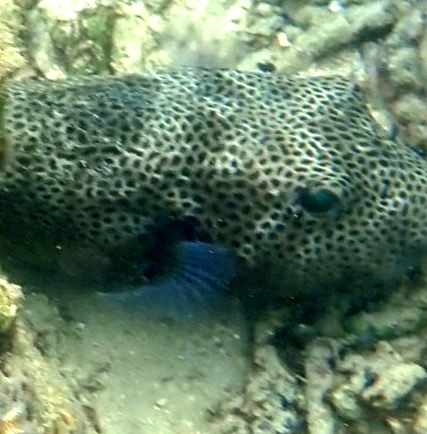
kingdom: Animalia
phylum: Chordata
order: Tetraodontiformes
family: Tetraodontidae
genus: Arothron
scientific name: Arothron stellatus
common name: Star blaasop
